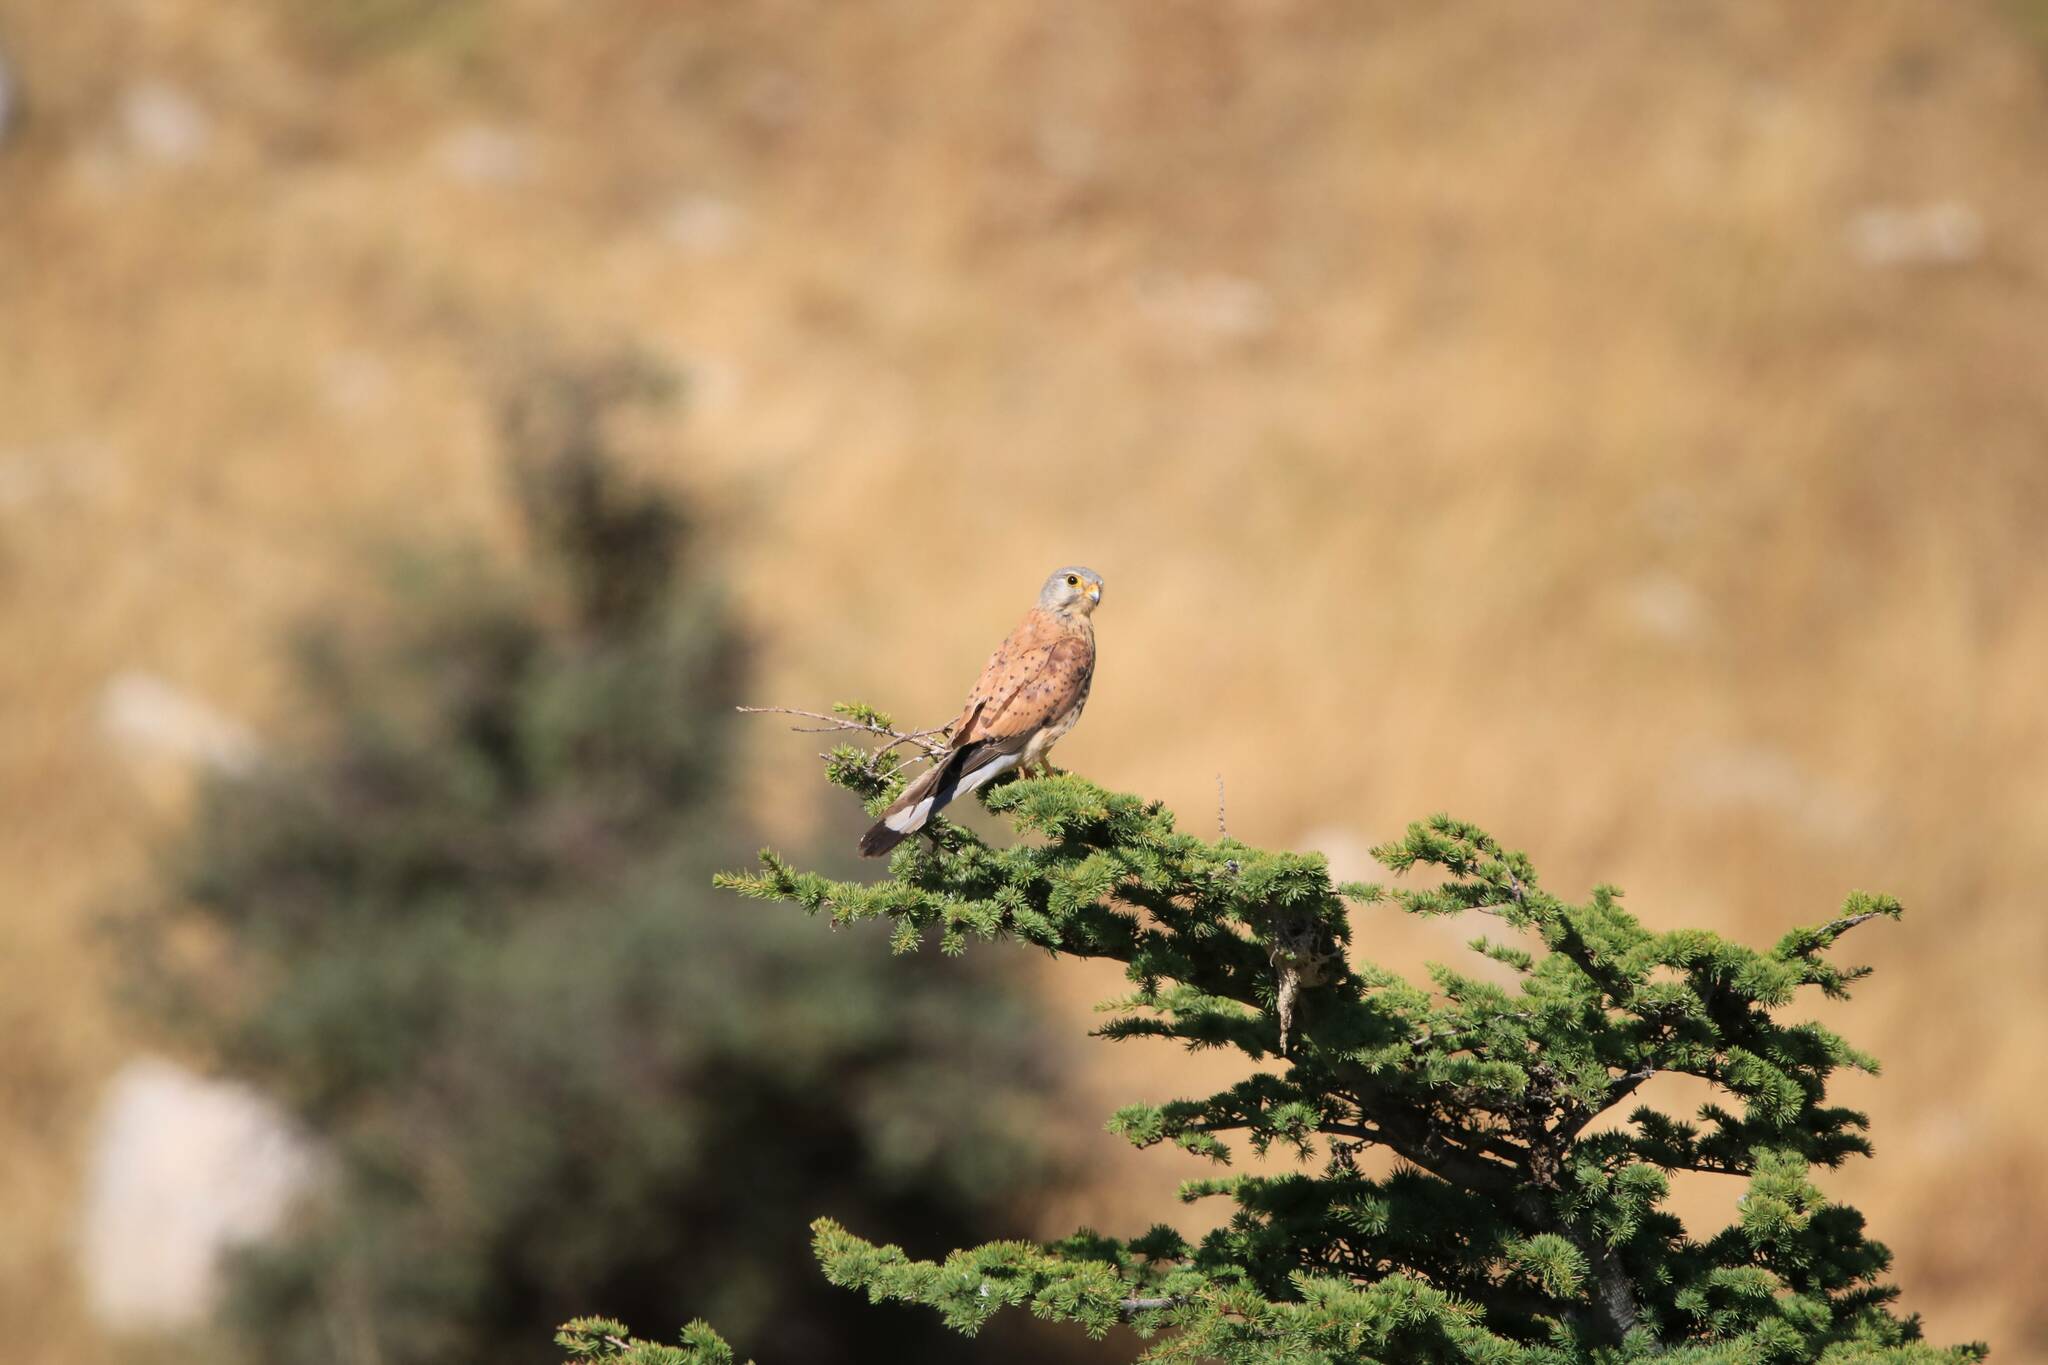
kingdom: Animalia
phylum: Chordata
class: Aves
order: Falconiformes
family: Falconidae
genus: Falco
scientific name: Falco tinnunculus
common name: Common kestrel
